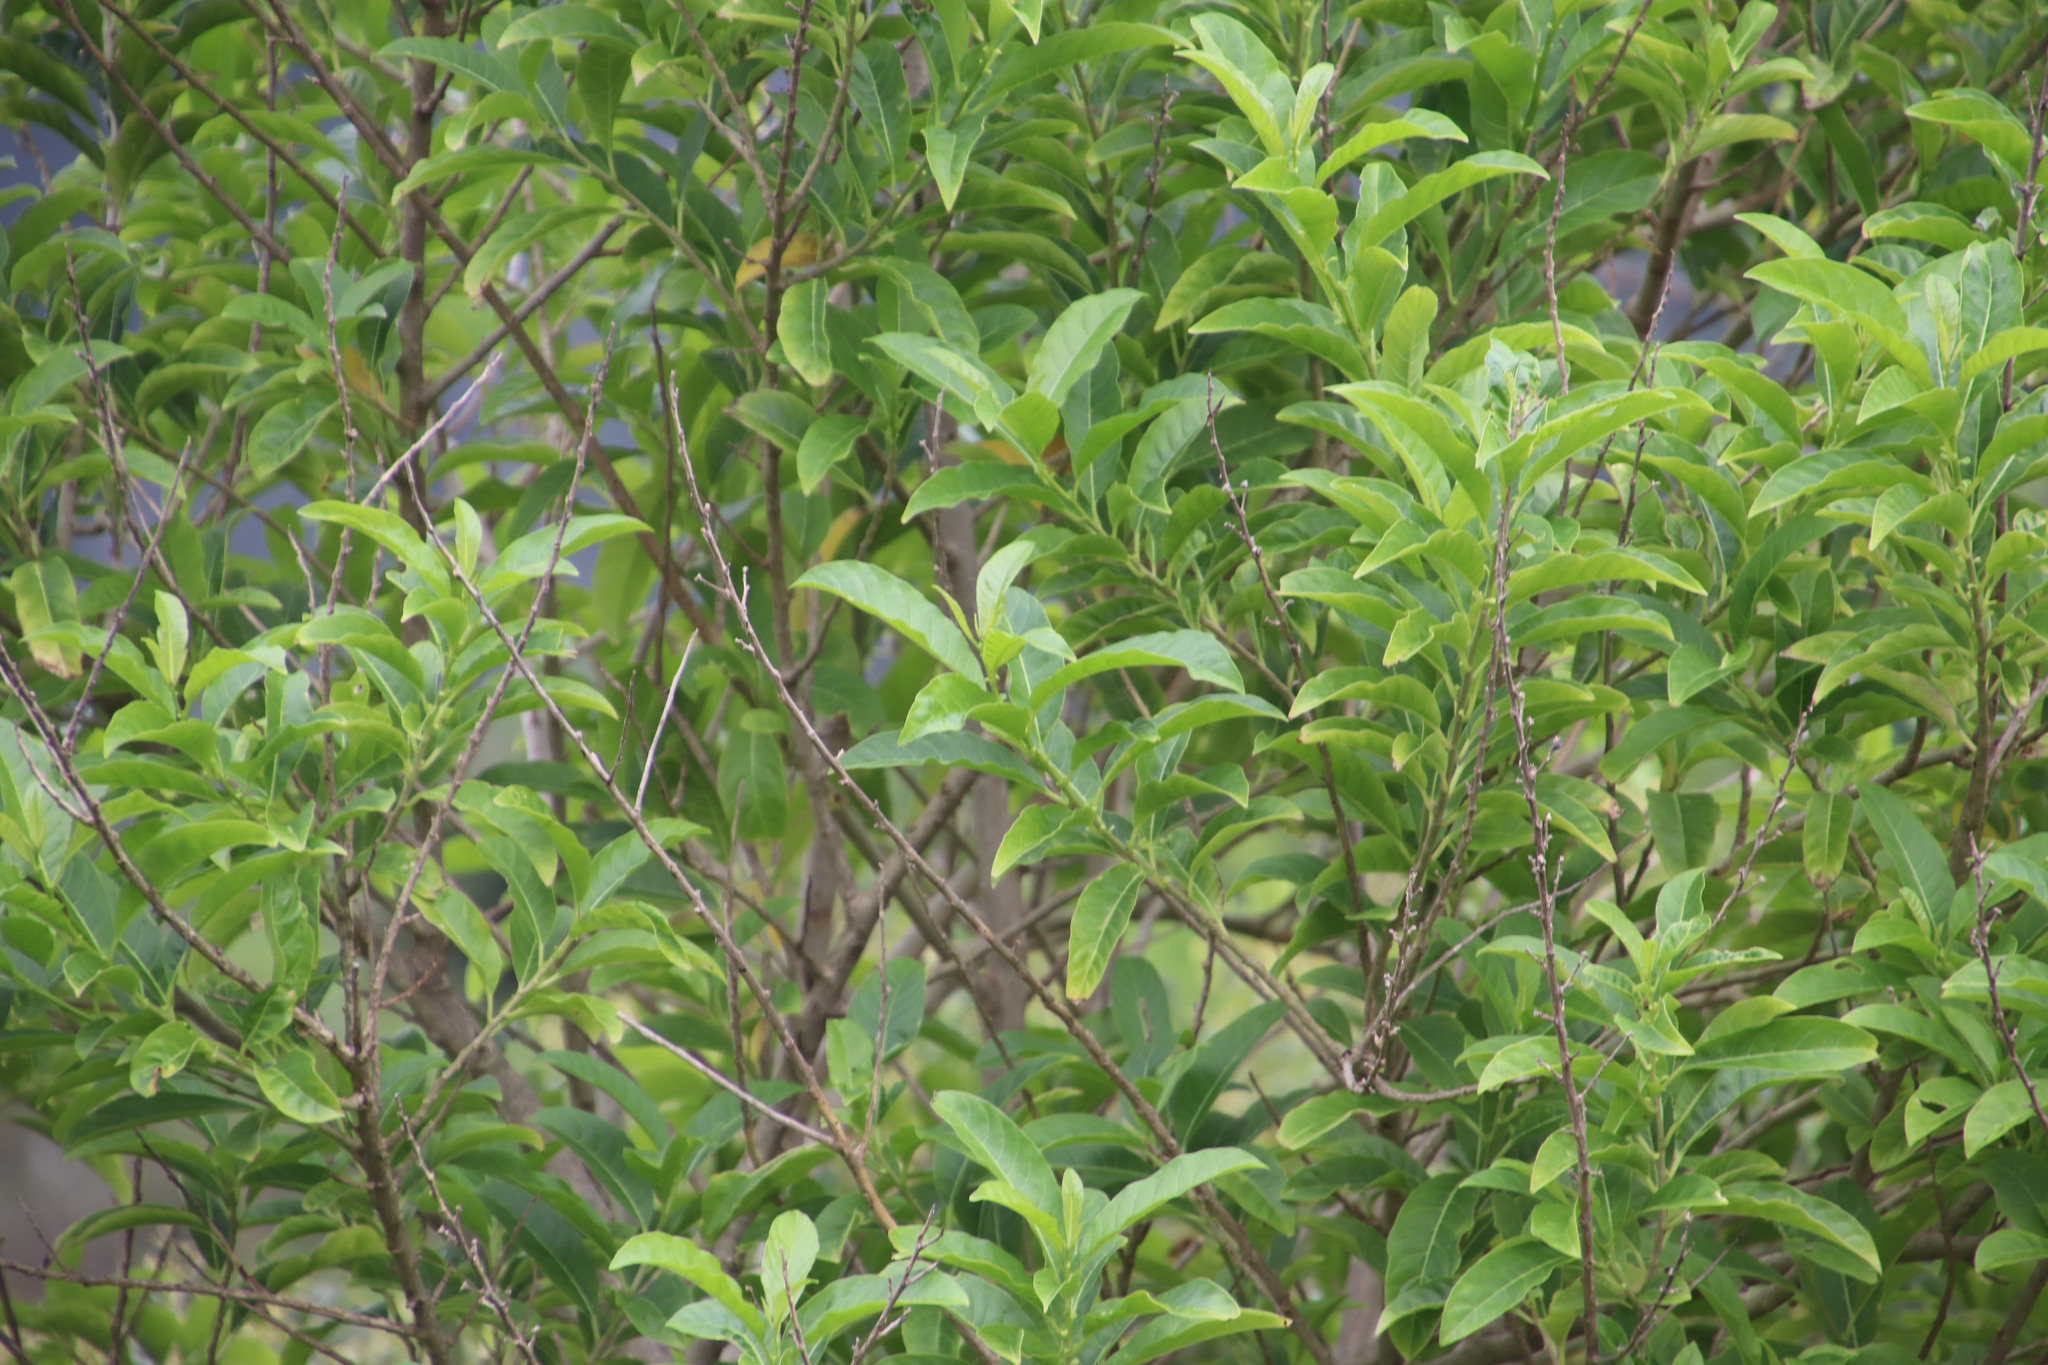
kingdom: Plantae
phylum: Tracheophyta
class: Magnoliopsida
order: Solanales
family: Solanaceae
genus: Cestrum
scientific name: Cestrum laevigatum
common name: Inkberry
